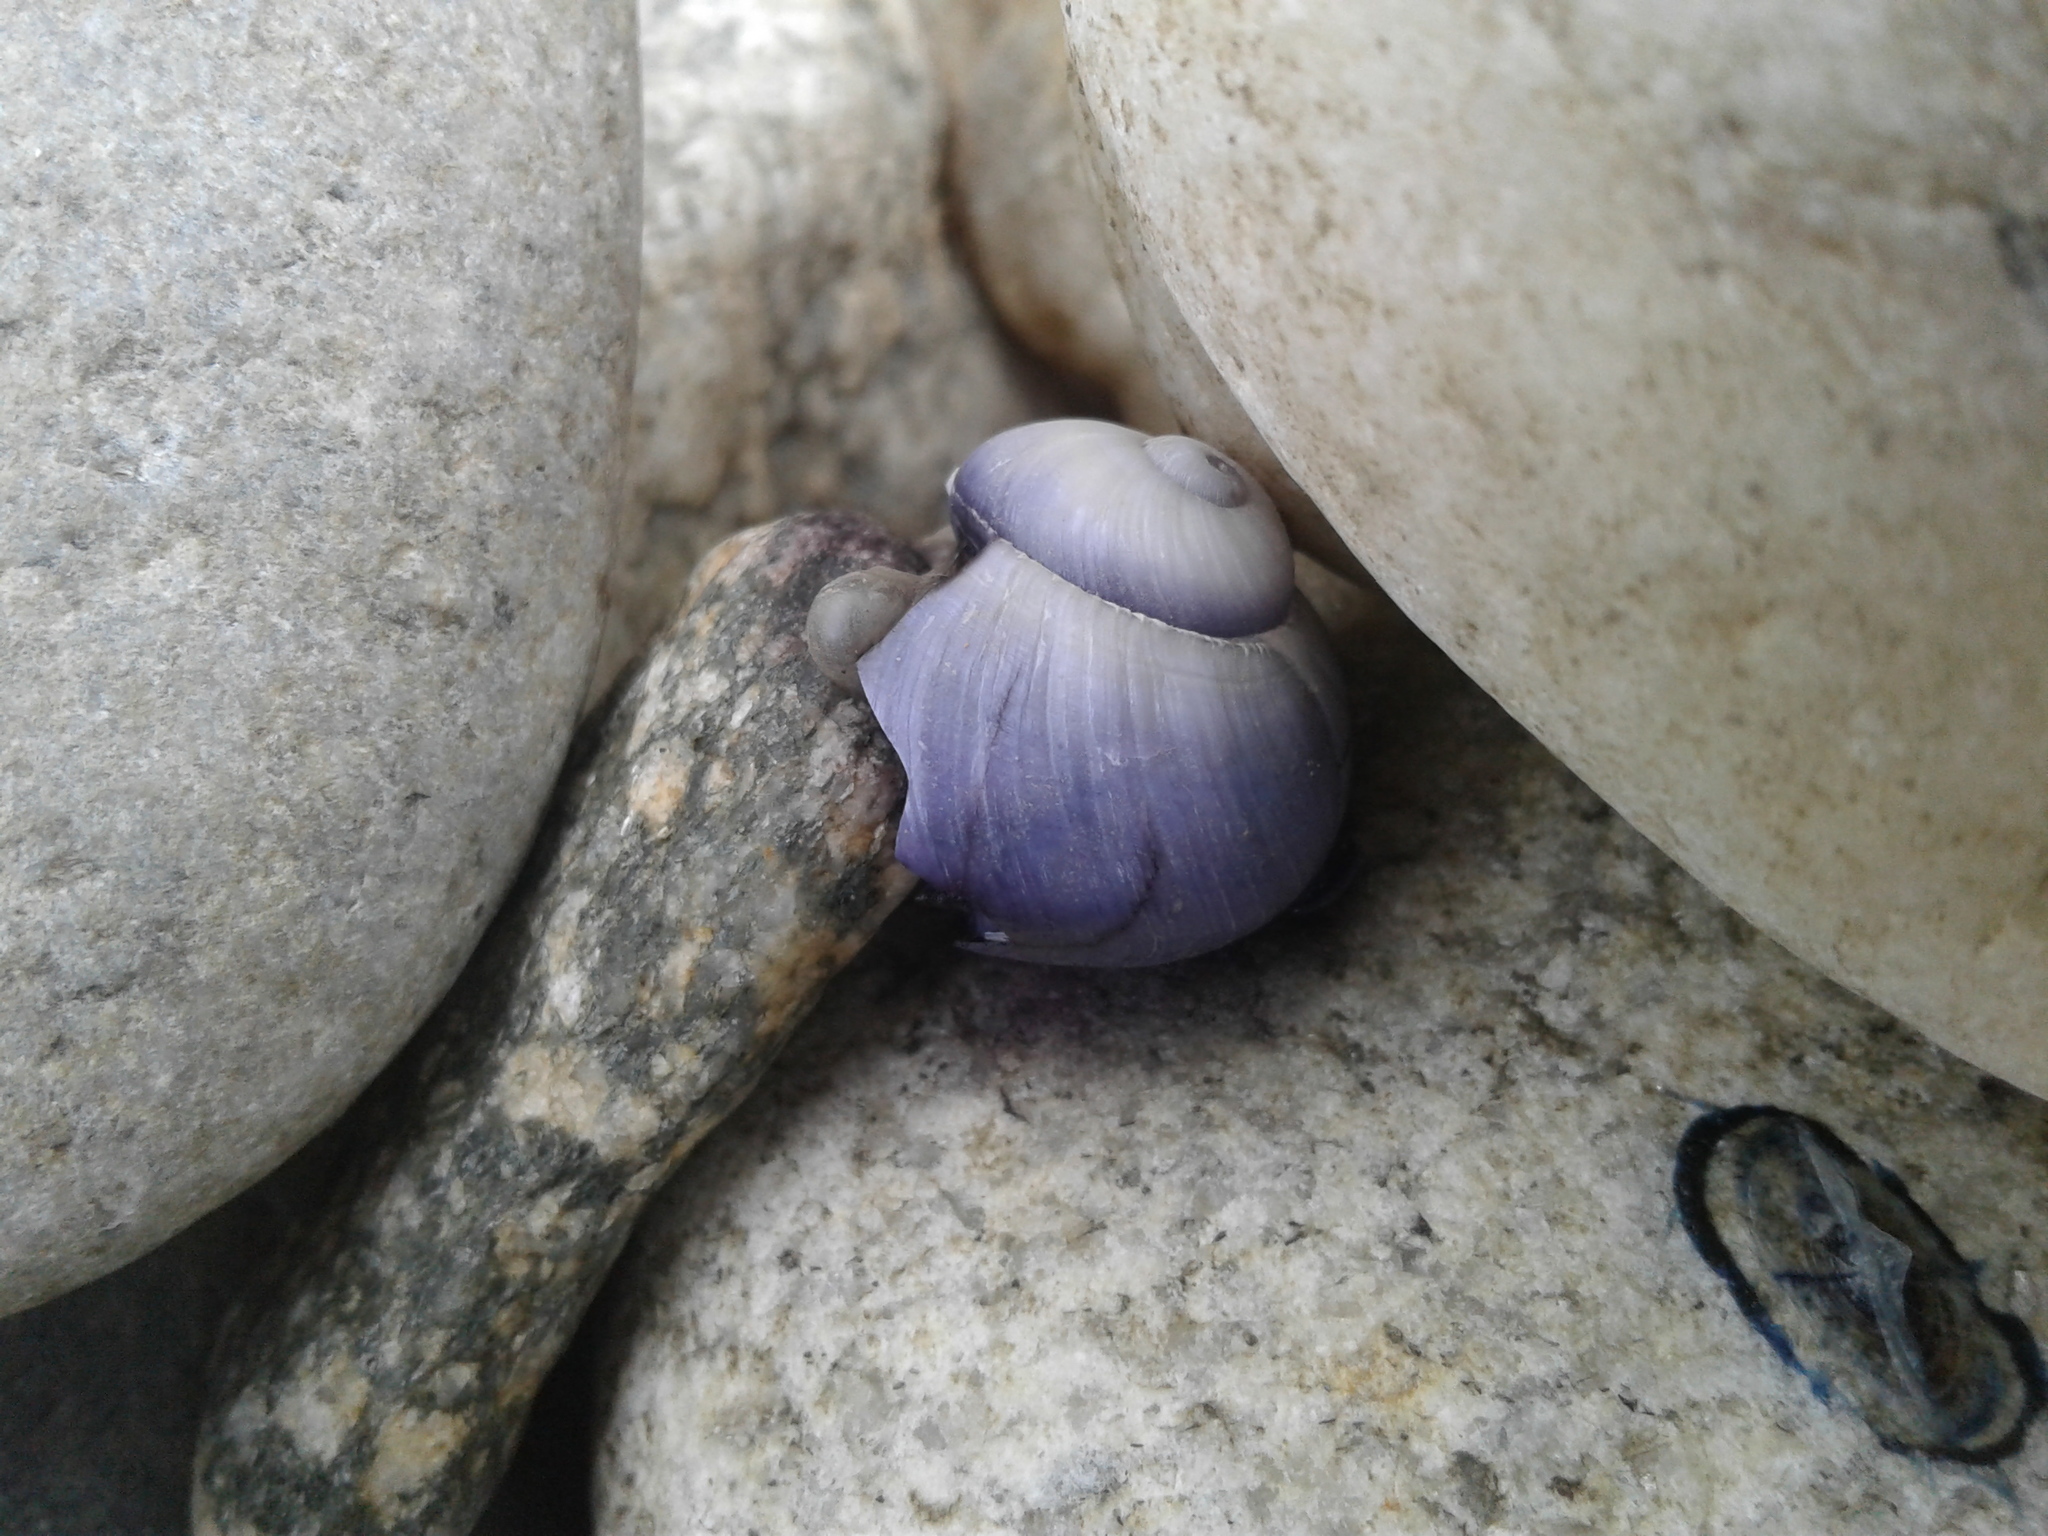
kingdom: Animalia
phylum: Mollusca
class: Gastropoda
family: Epitoniidae
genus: Janthina
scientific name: Janthina janthina
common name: Common janthina
